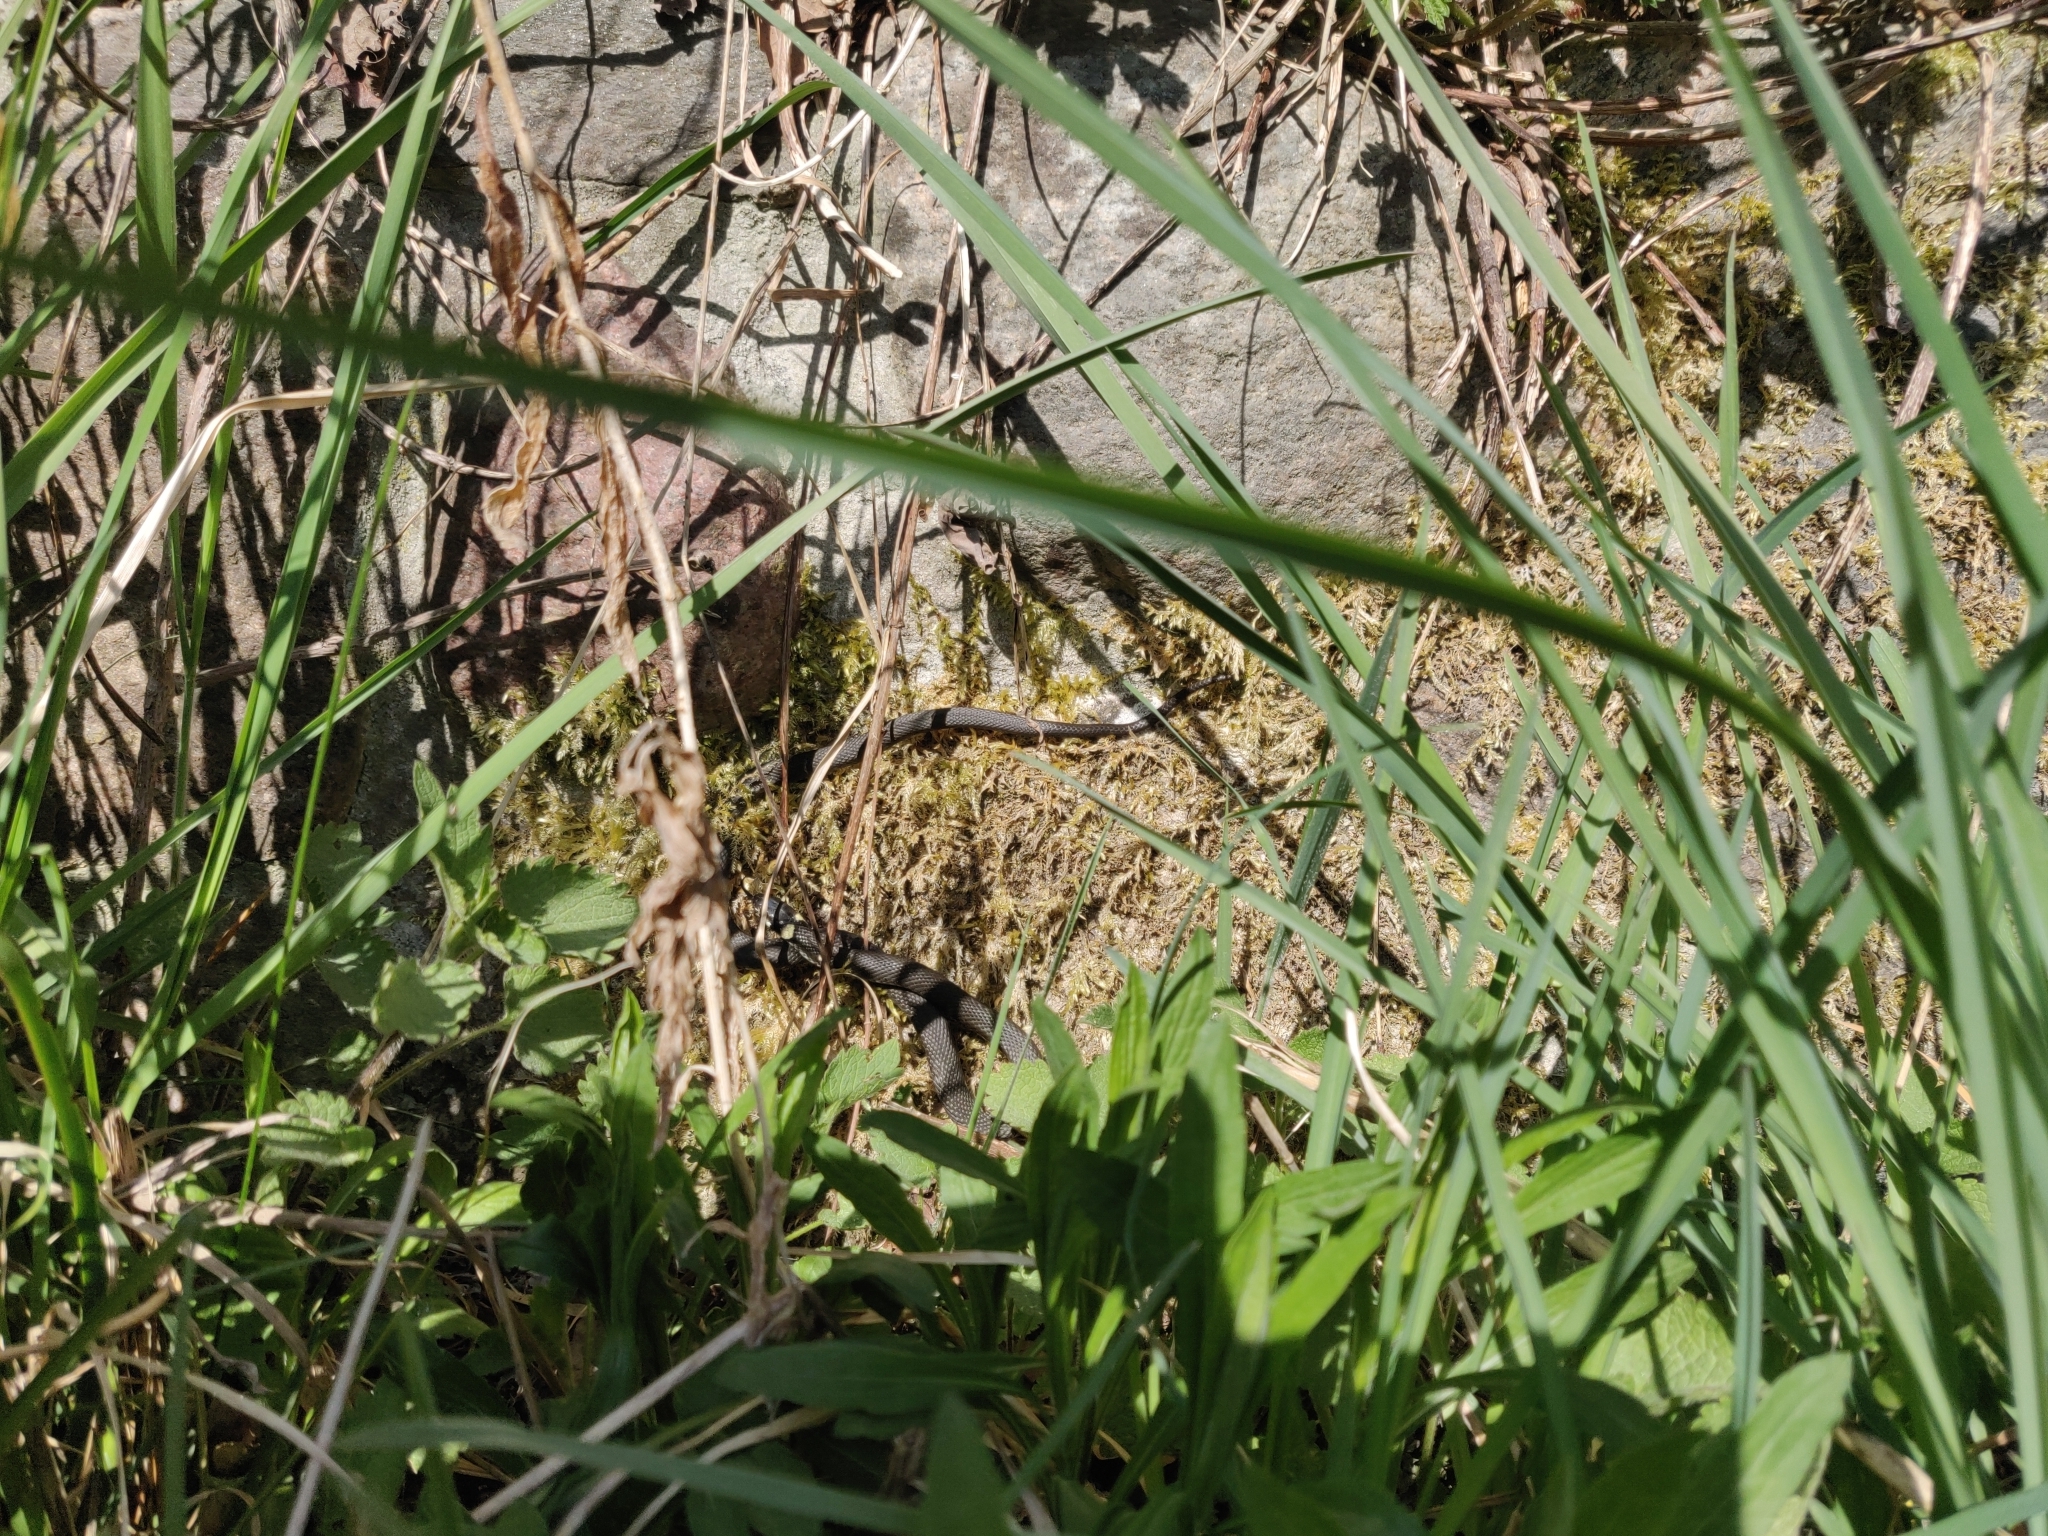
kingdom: Animalia
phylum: Chordata
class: Squamata
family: Colubridae
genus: Natrix
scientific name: Natrix natrix
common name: Grass snake
